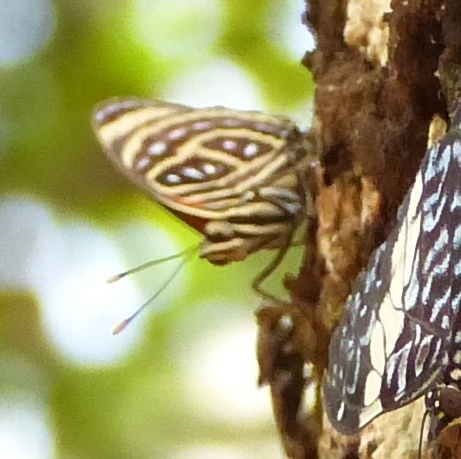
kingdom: Animalia
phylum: Arthropoda
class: Insecta
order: Lepidoptera
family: Nymphalidae
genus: Catagramma
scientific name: Catagramma pygas
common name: Godart's numberwing
